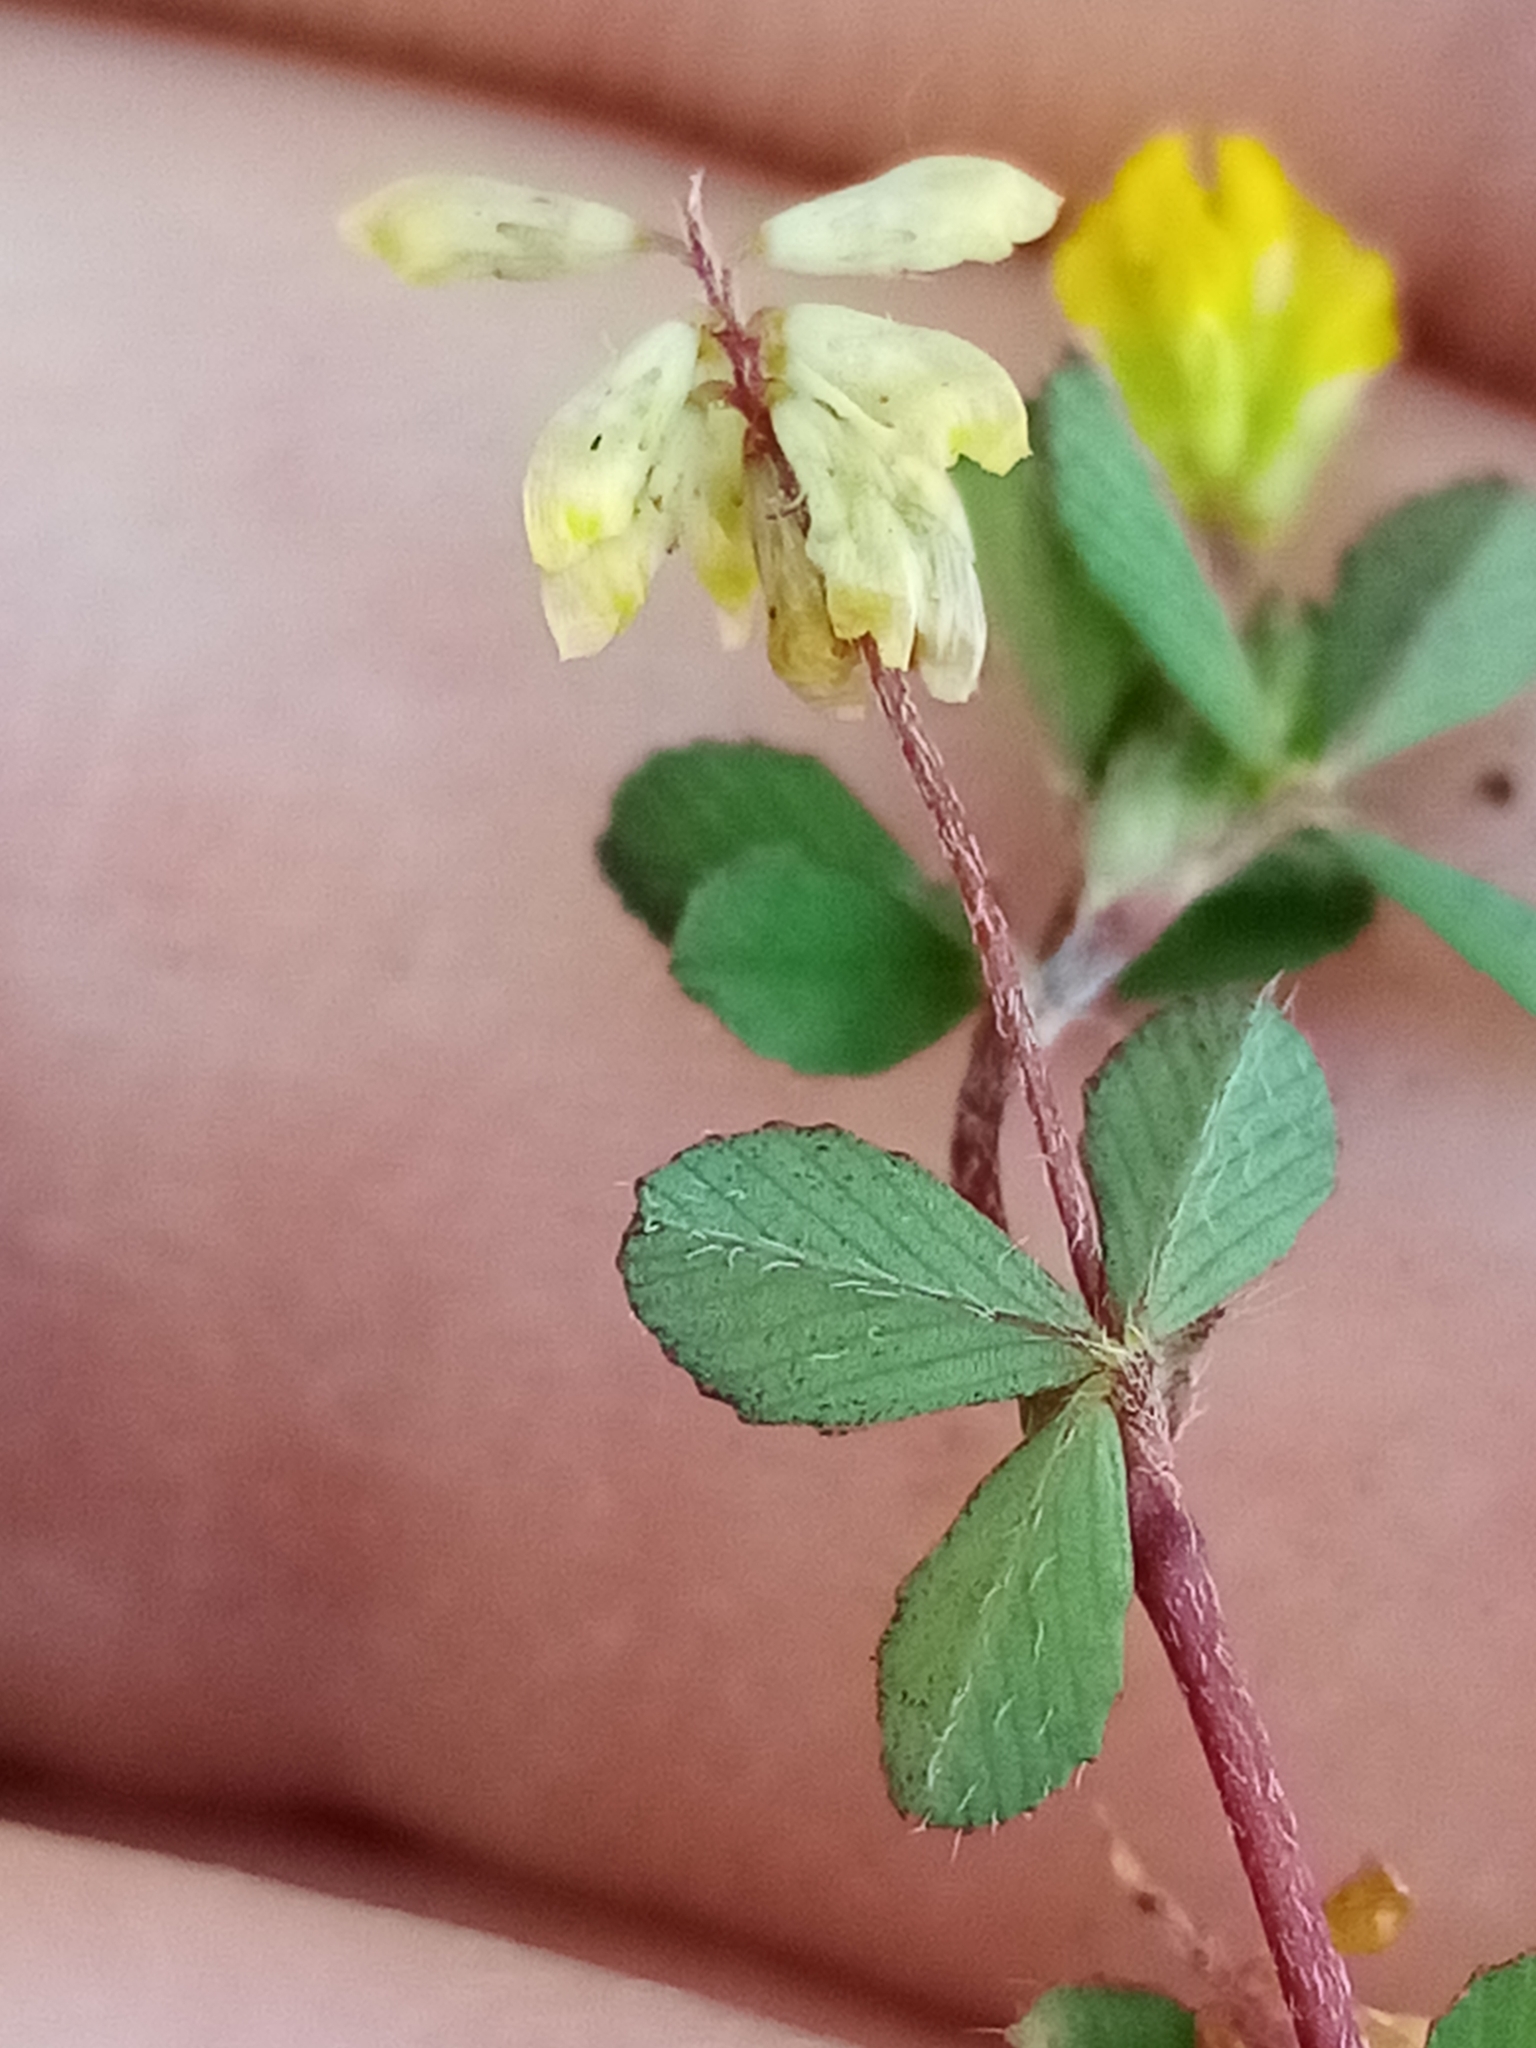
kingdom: Plantae
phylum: Tracheophyta
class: Magnoliopsida
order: Fabales
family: Fabaceae
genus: Trifolium
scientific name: Trifolium dubium
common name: Suckling clover
